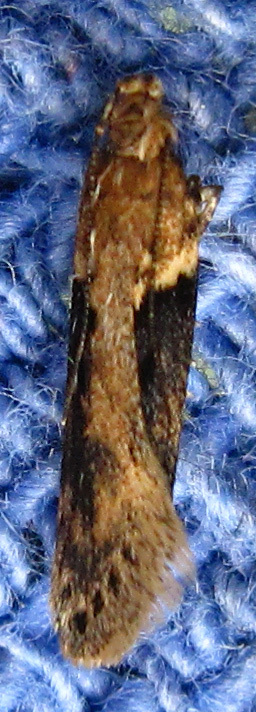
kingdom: Animalia
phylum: Arthropoda
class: Insecta
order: Lepidoptera
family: Gelechiidae
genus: Chionodes
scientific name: Chionodes mediofuscella
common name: Black-smudged chionodes moth
